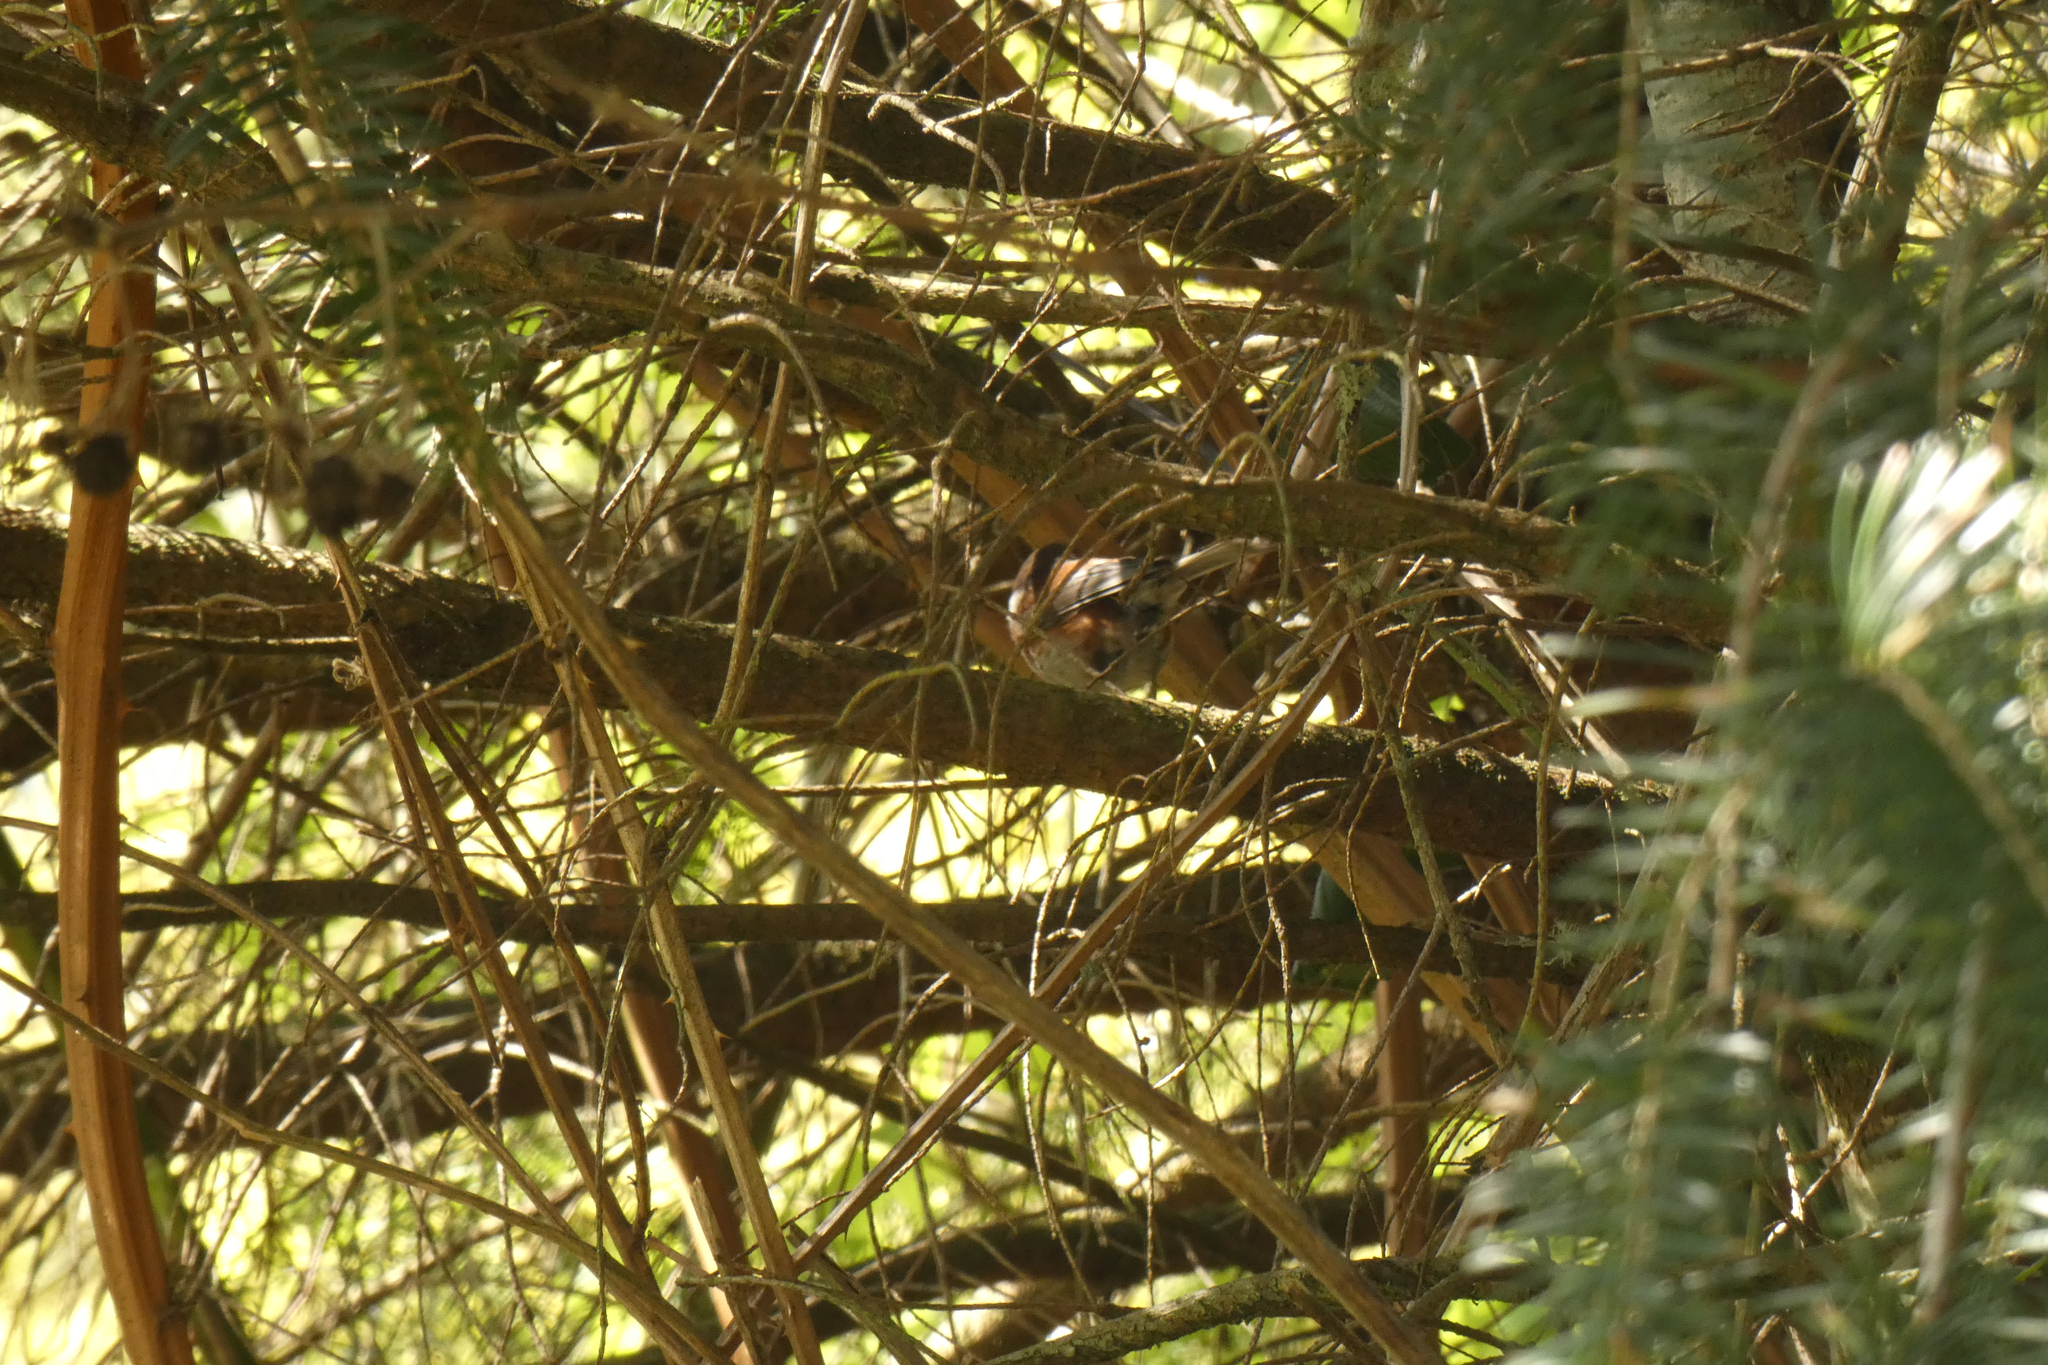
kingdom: Animalia
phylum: Chordata
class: Aves
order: Passeriformes
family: Paridae
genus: Poecile
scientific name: Poecile rufescens
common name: Chestnut-backed chickadee
